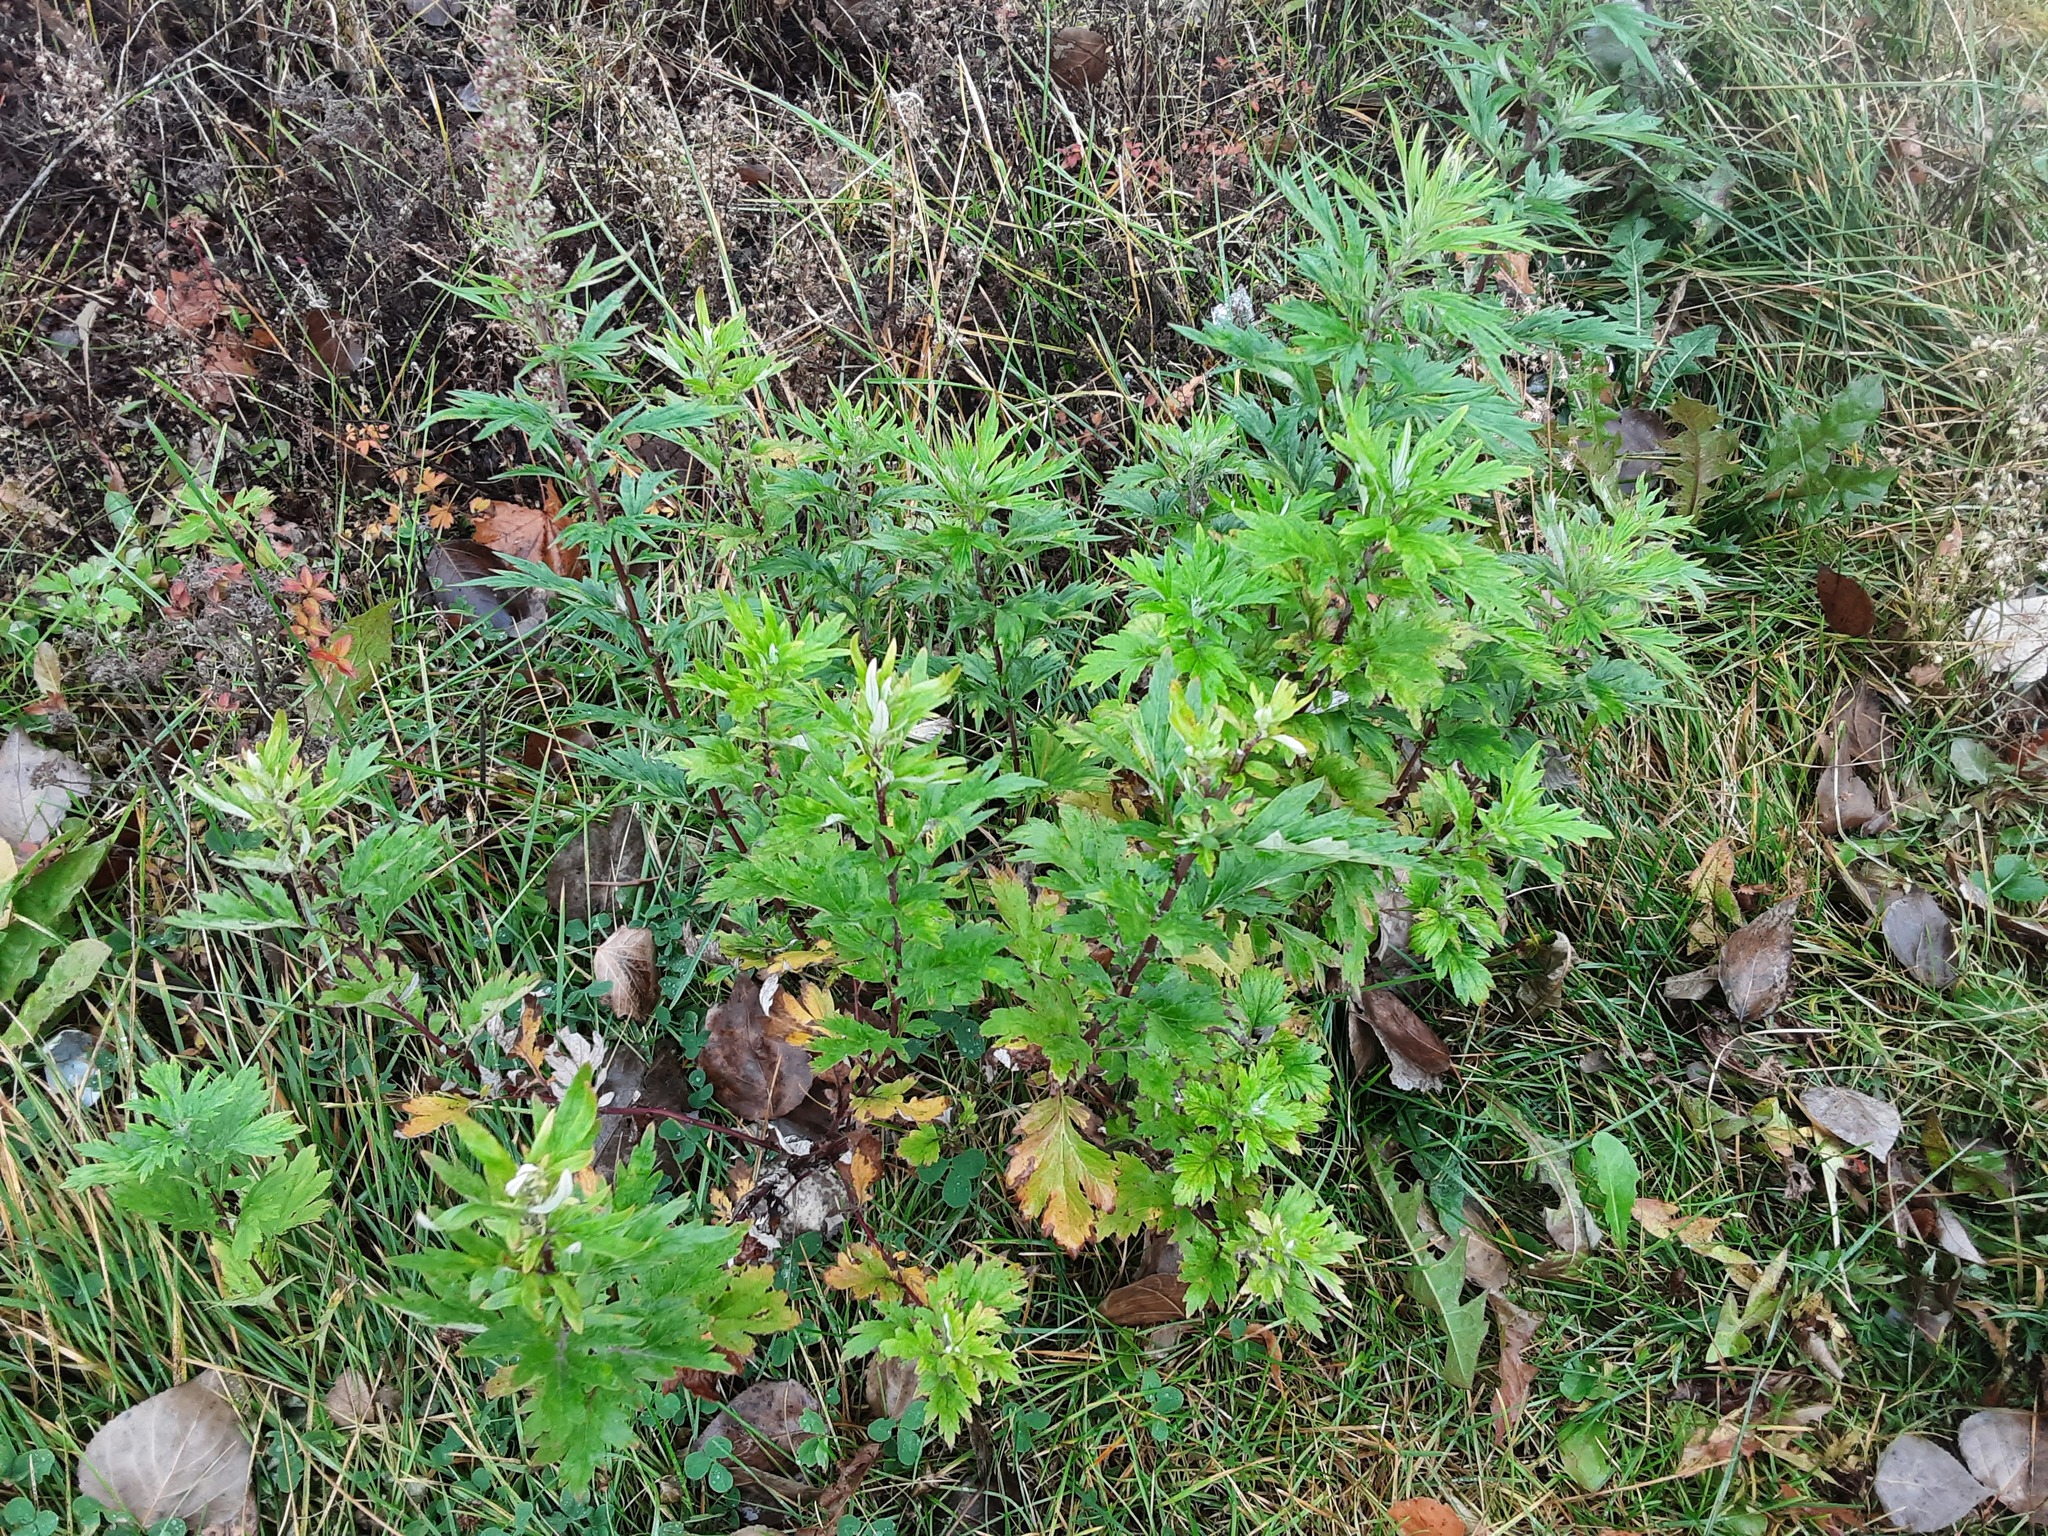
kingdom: Plantae
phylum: Tracheophyta
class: Magnoliopsida
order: Asterales
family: Asteraceae
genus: Artemisia
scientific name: Artemisia vulgaris
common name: Mugwort
